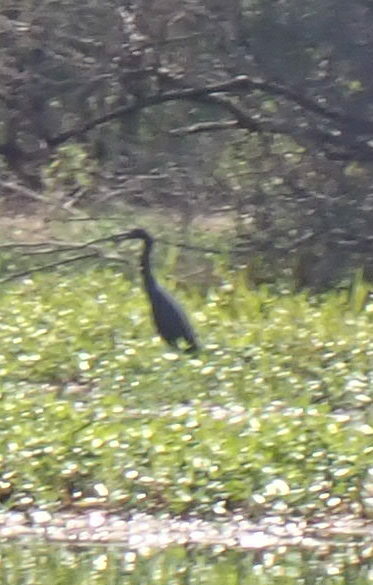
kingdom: Animalia
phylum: Chordata
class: Aves
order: Pelecaniformes
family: Ardeidae
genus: Egretta
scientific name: Egretta caerulea
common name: Little blue heron
